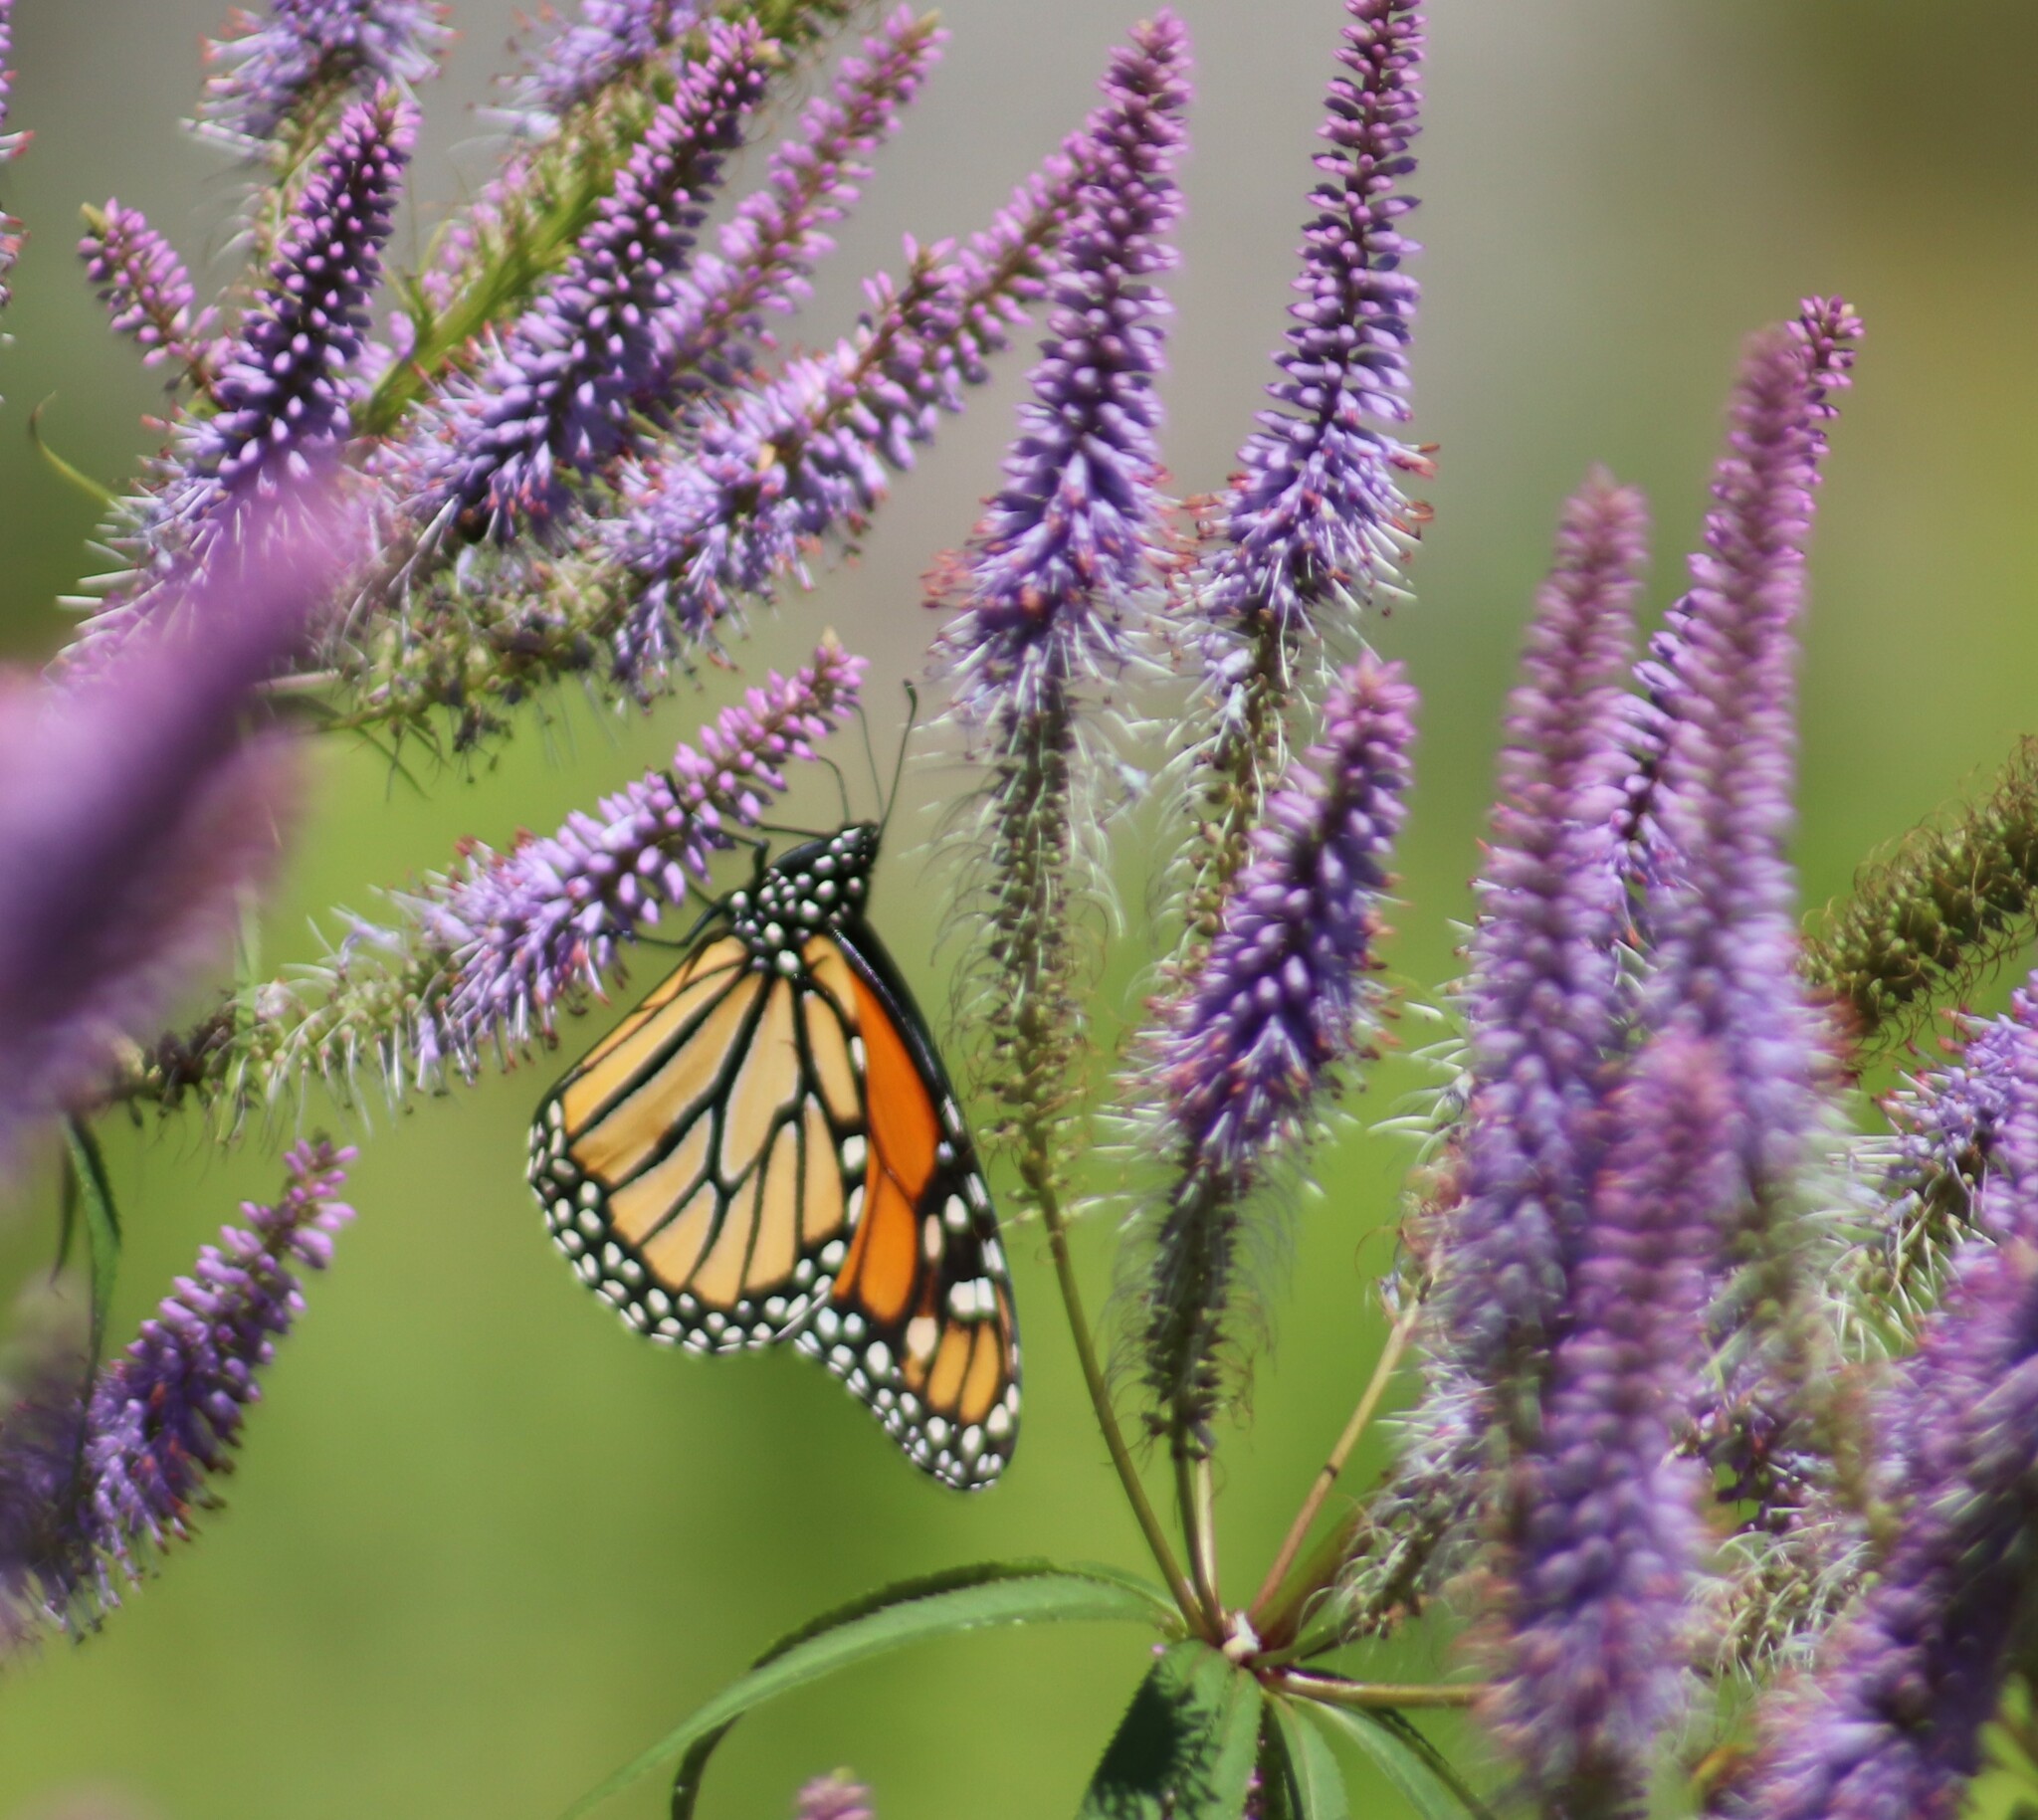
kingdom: Animalia
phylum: Arthropoda
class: Insecta
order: Lepidoptera
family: Nymphalidae
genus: Danaus
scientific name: Danaus plexippus
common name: Monarch
